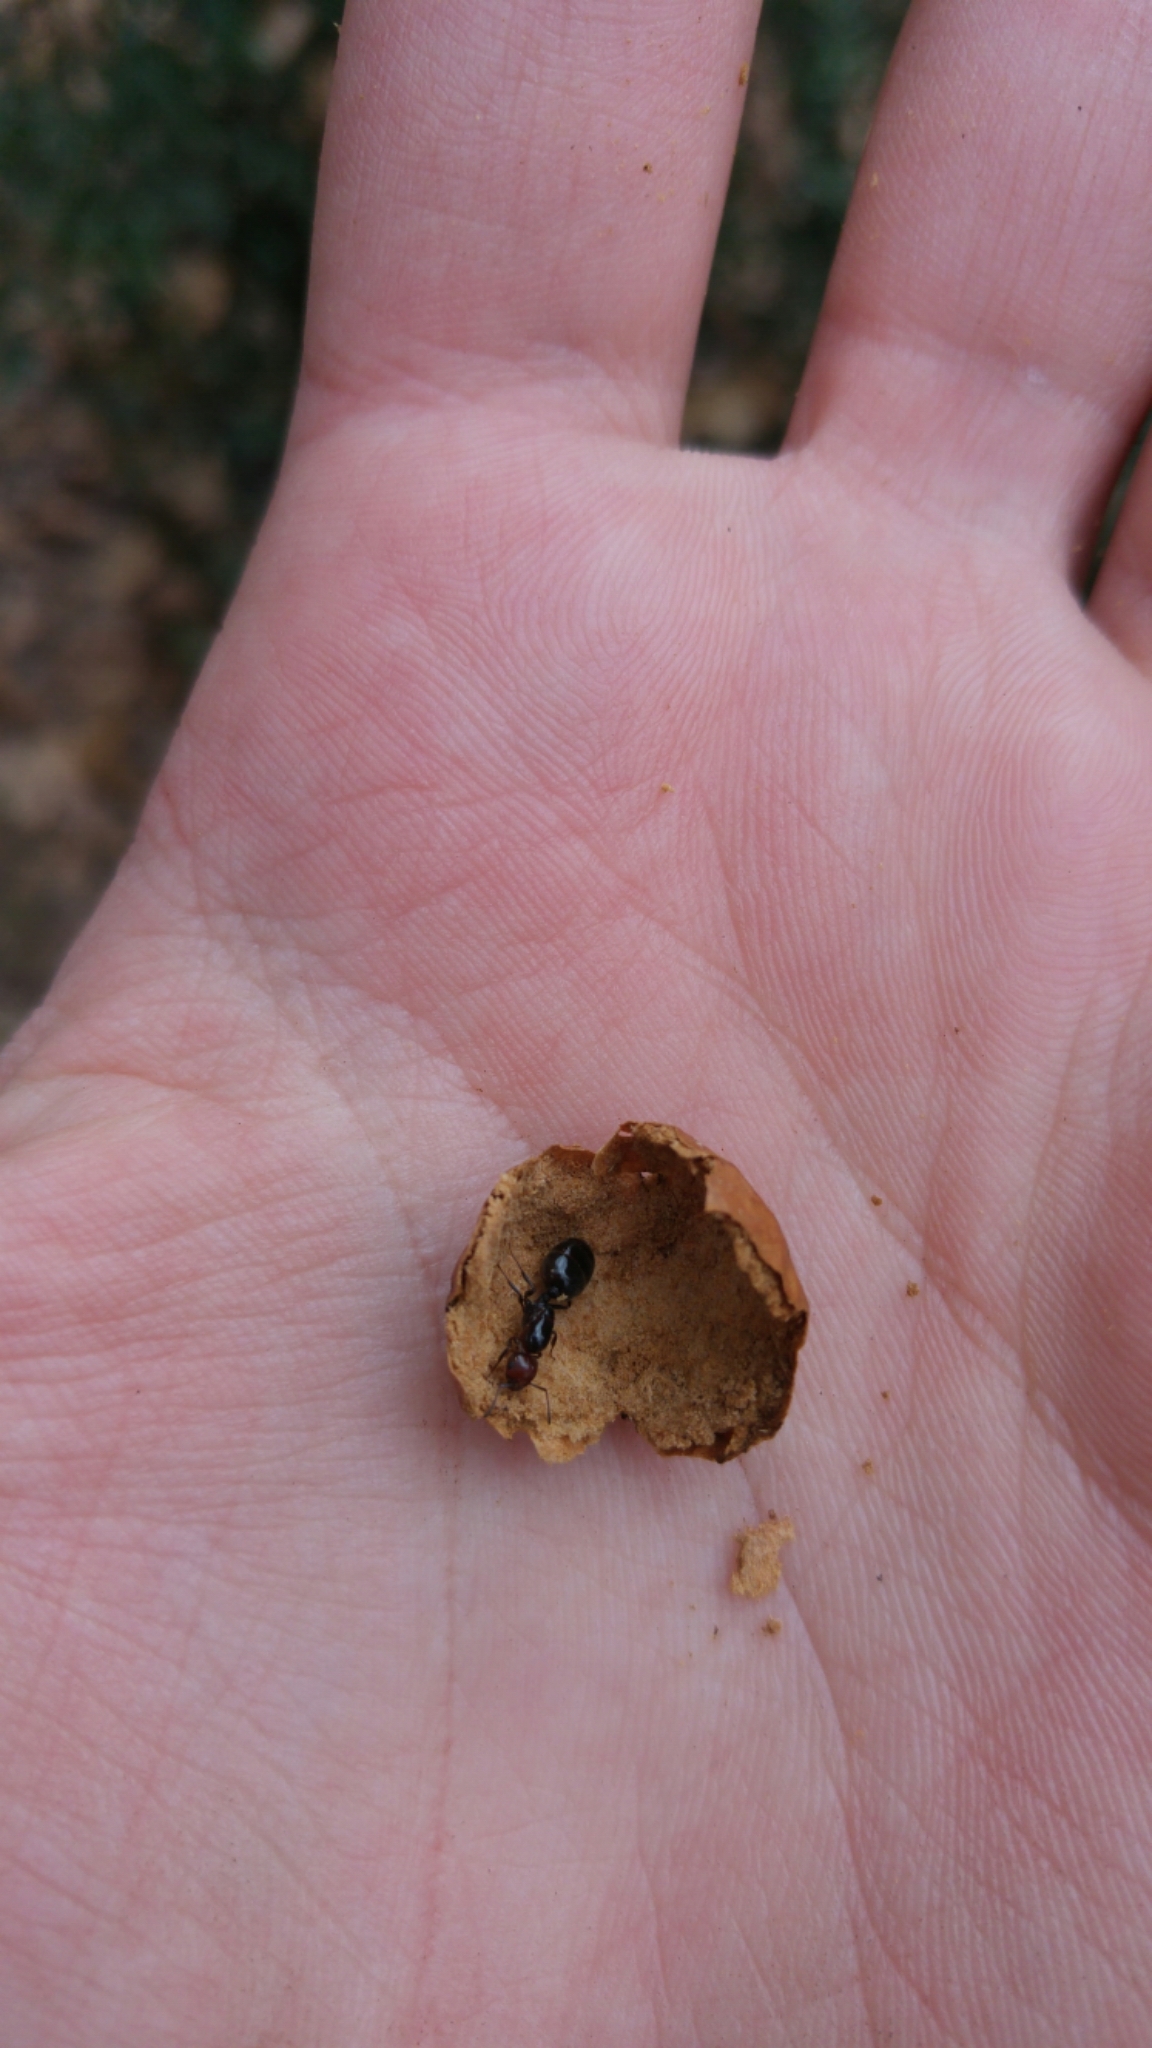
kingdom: Animalia
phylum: Arthropoda
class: Insecta
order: Hymenoptera
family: Formicidae
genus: Crematogaster
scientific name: Crematogaster scutellaris
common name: Fourmi du liège
